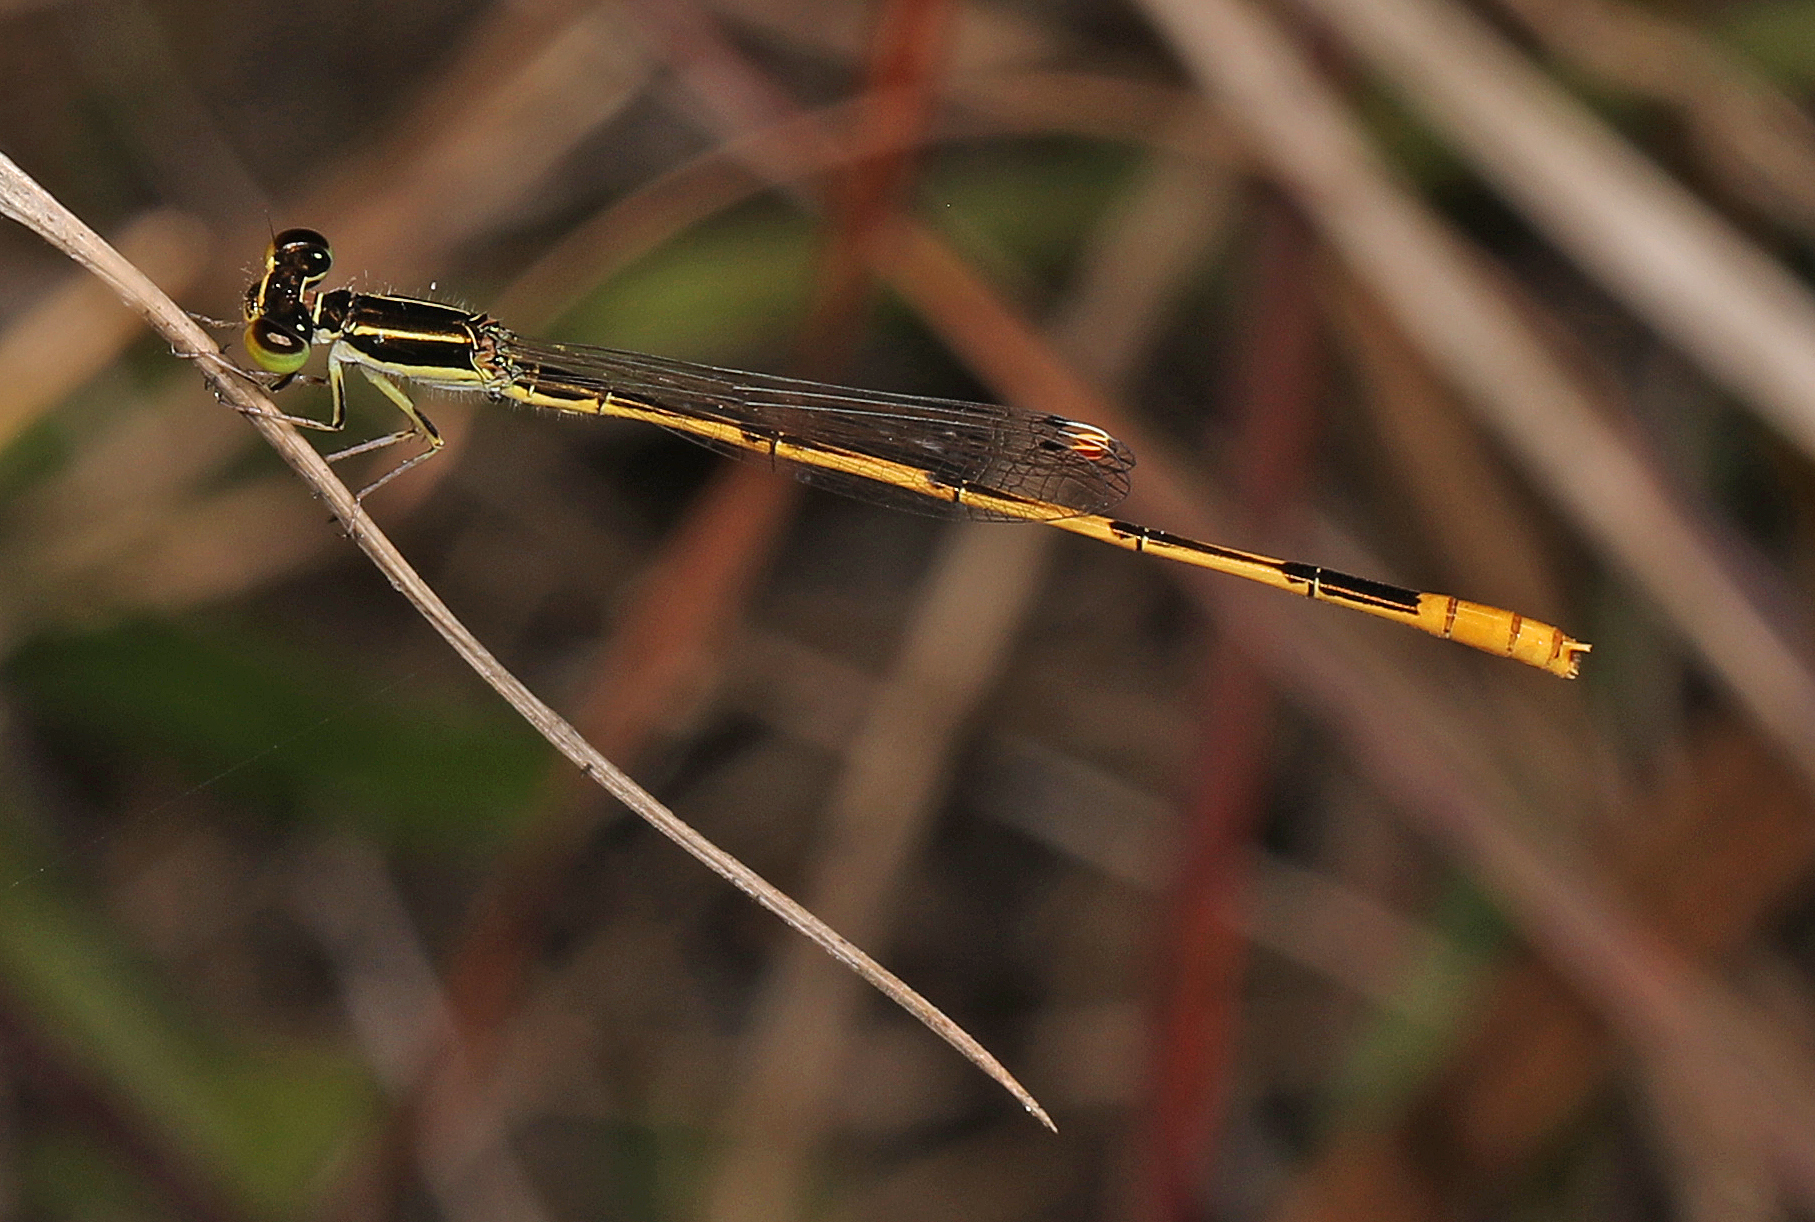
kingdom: Animalia
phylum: Arthropoda
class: Insecta
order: Odonata
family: Coenagrionidae
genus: Ischnura
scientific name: Ischnura hastata
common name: Citrine forktail
